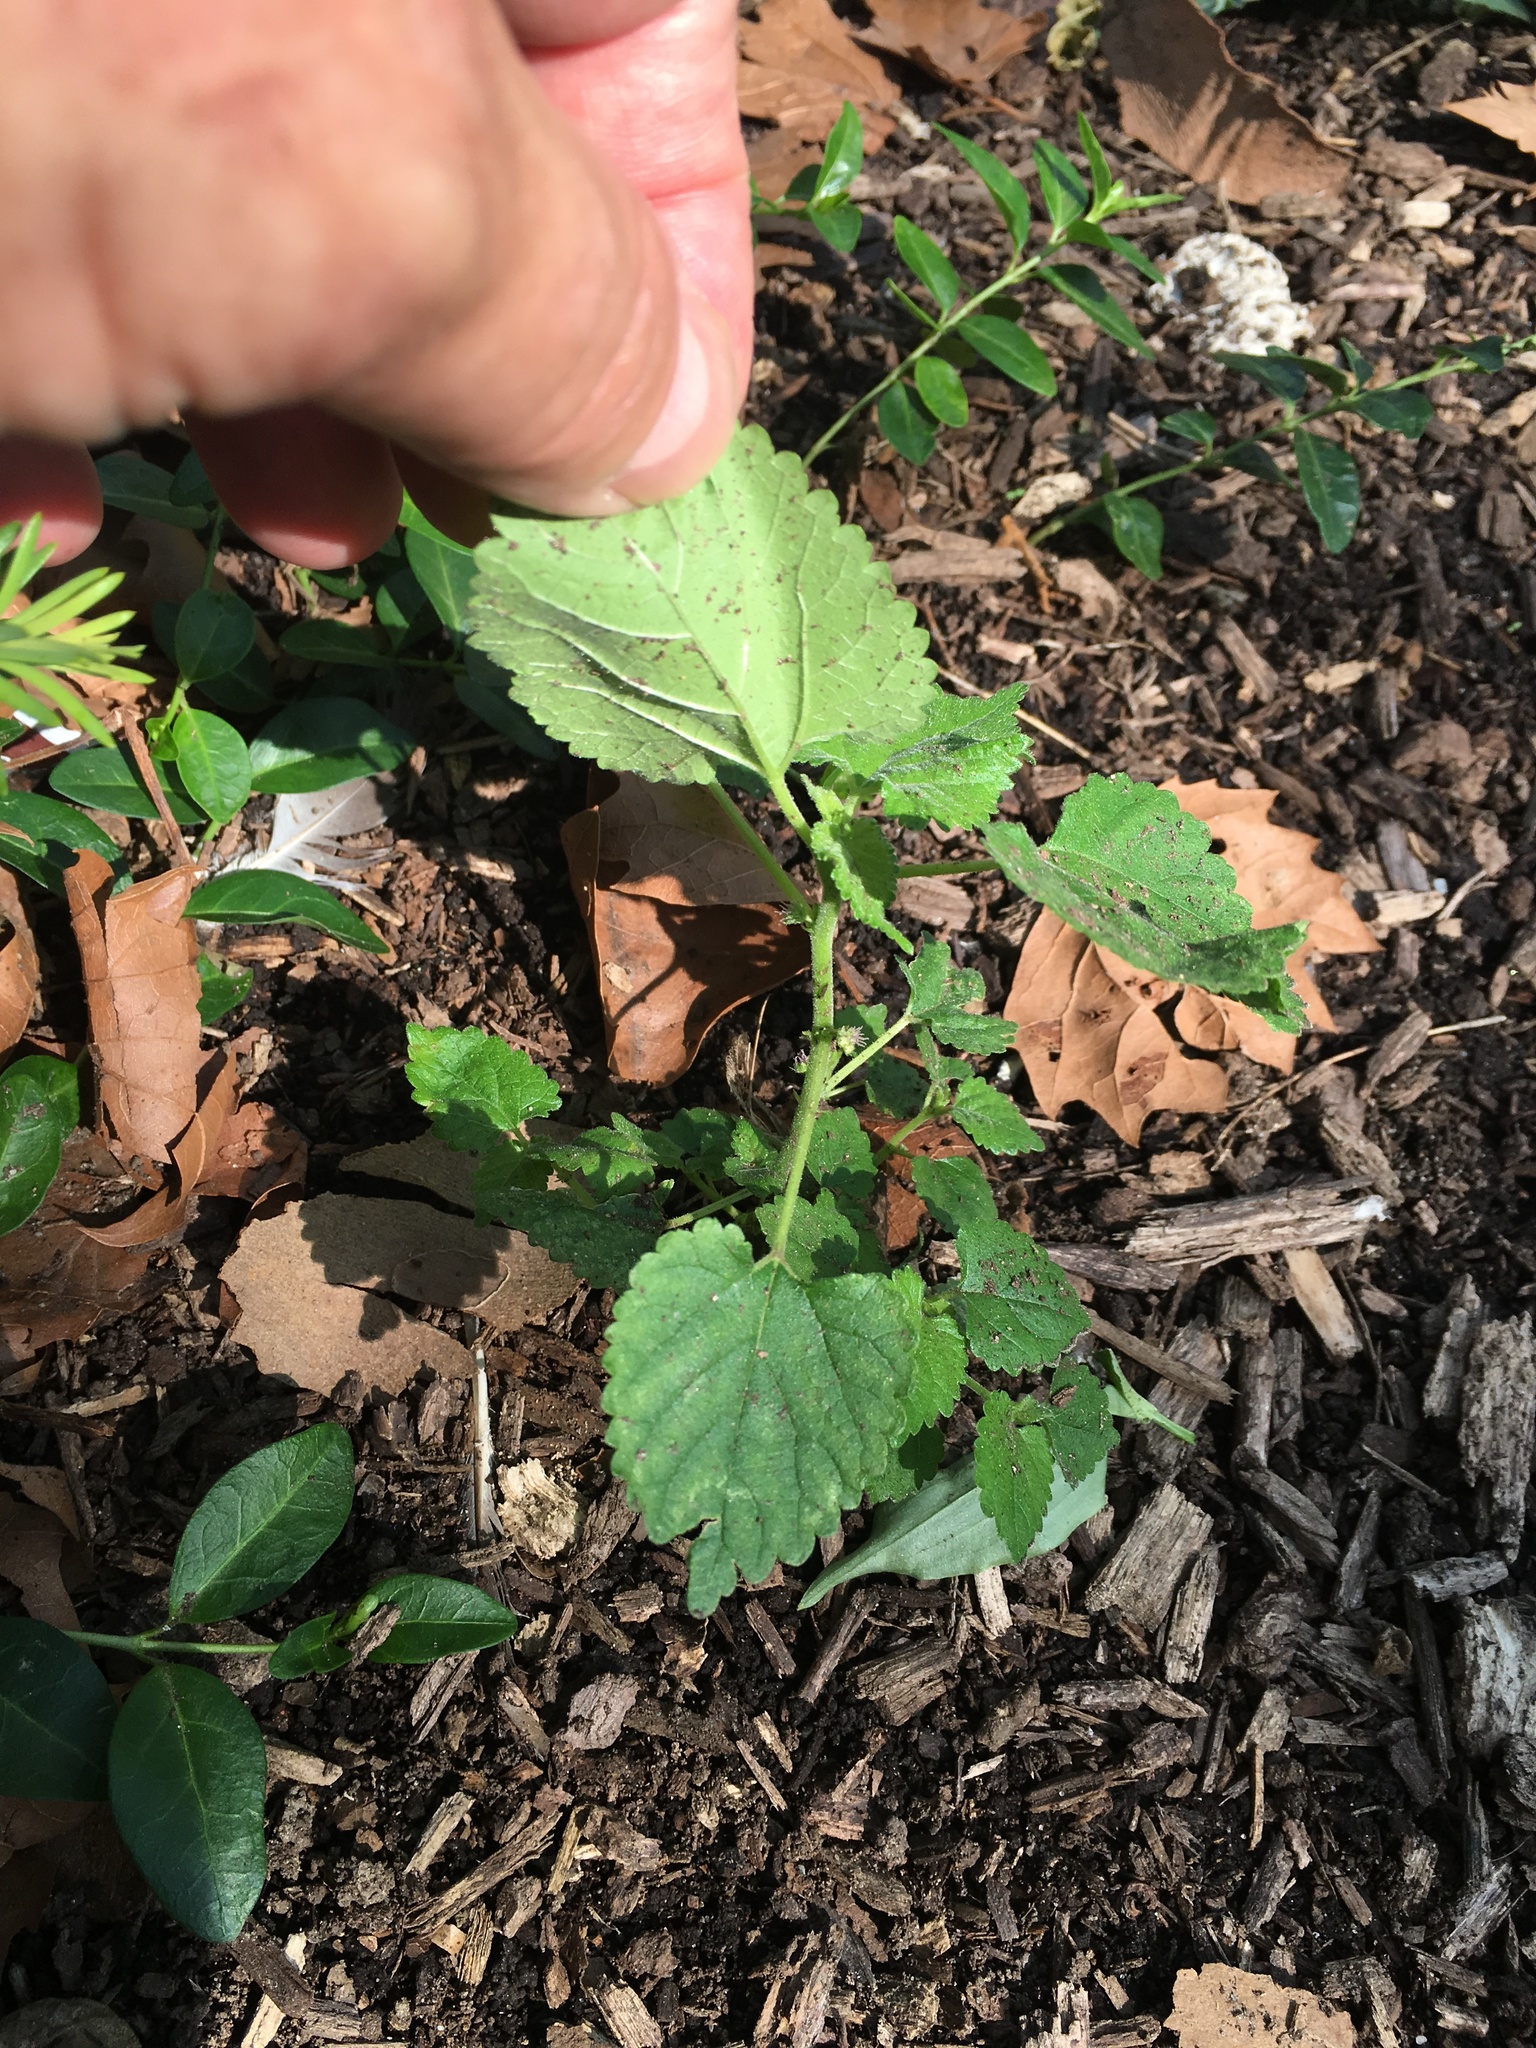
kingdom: Plantae
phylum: Tracheophyta
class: Magnoliopsida
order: Rosales
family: Moraceae
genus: Fatoua
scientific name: Fatoua villosa
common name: Hairy crabweed
